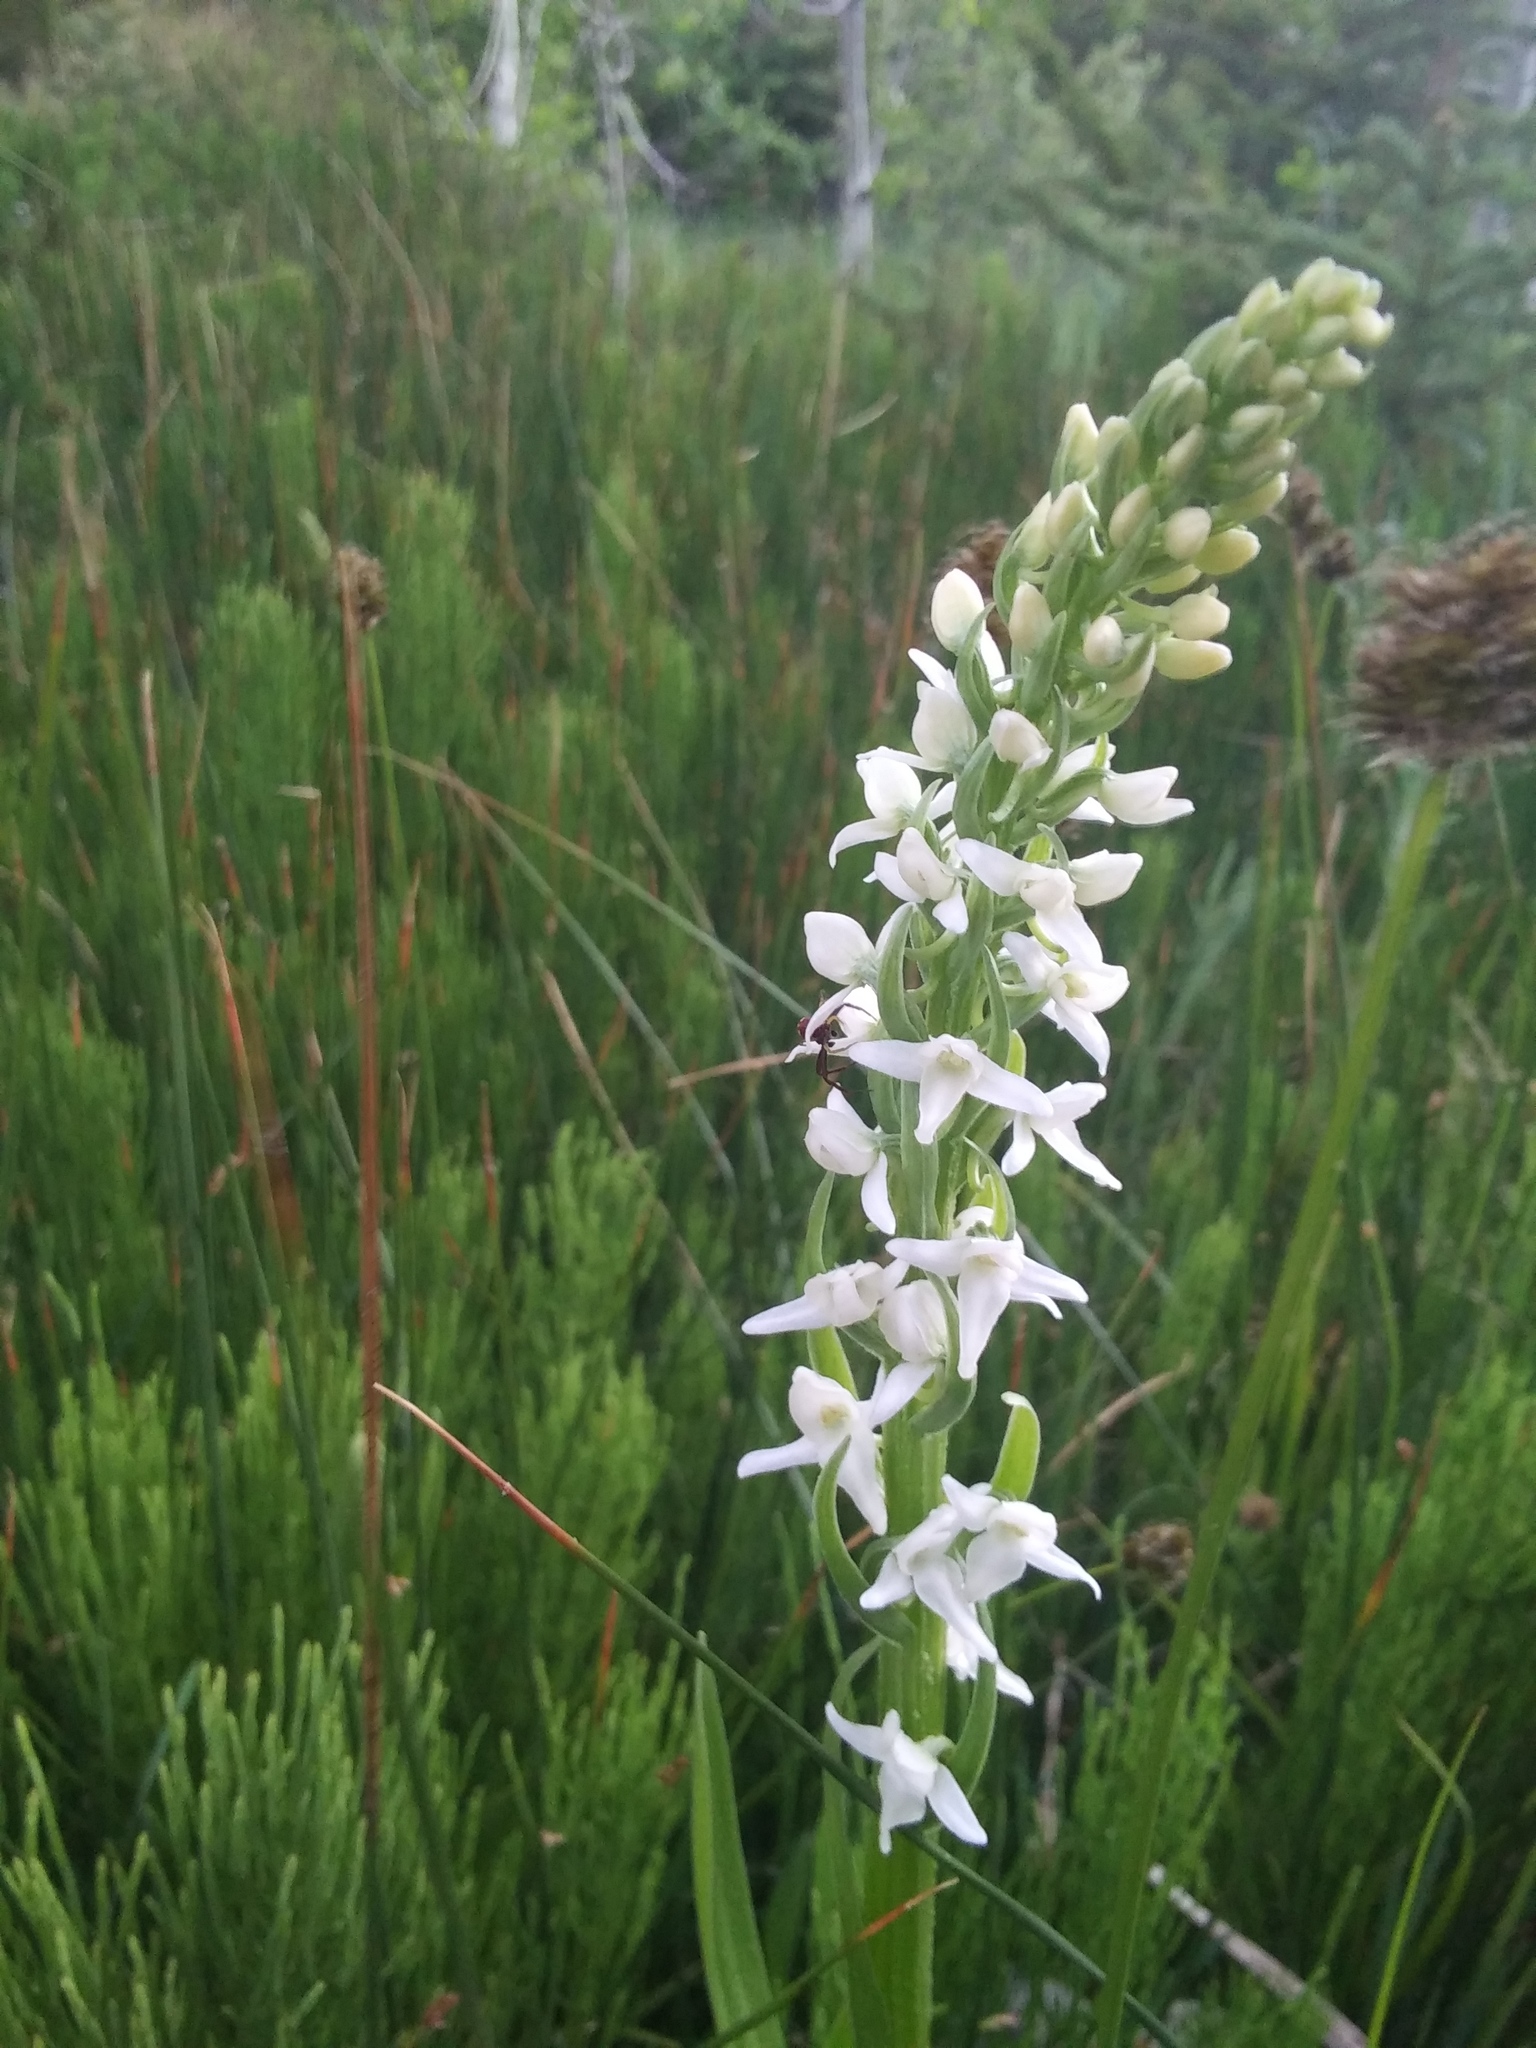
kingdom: Plantae
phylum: Tracheophyta
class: Liliopsida
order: Asparagales
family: Orchidaceae
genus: Platanthera
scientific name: Platanthera dilatata
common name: Bog candles
